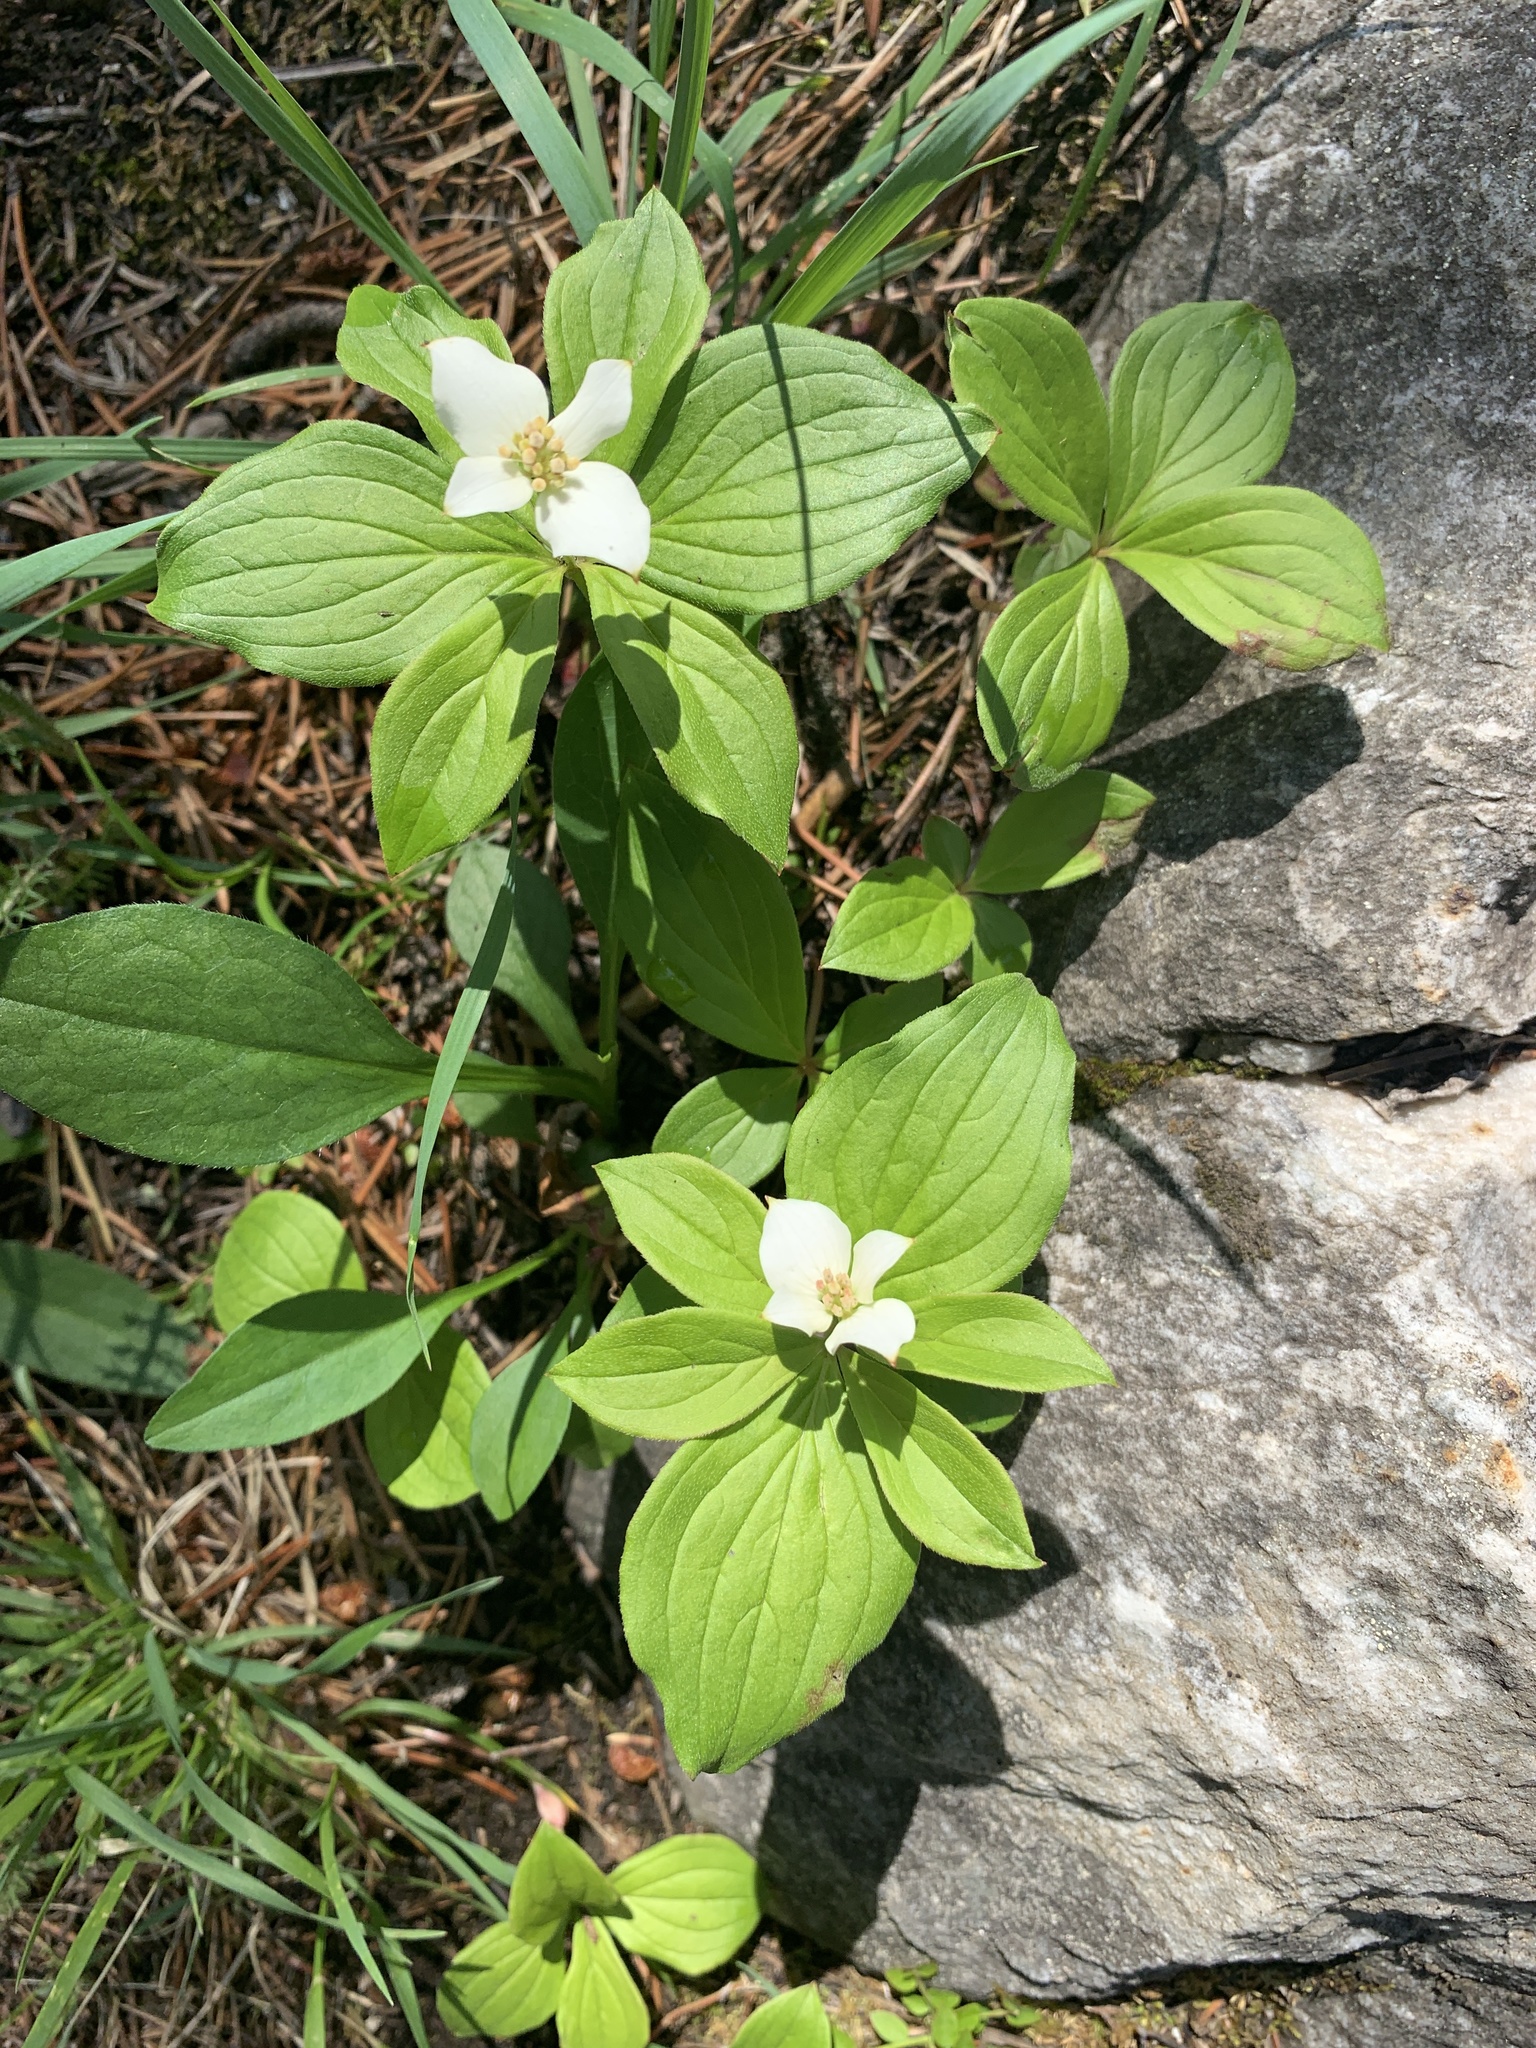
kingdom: Plantae
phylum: Tracheophyta
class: Magnoliopsida
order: Cornales
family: Cornaceae
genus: Cornus
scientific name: Cornus canadensis
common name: Creeping dogwood
